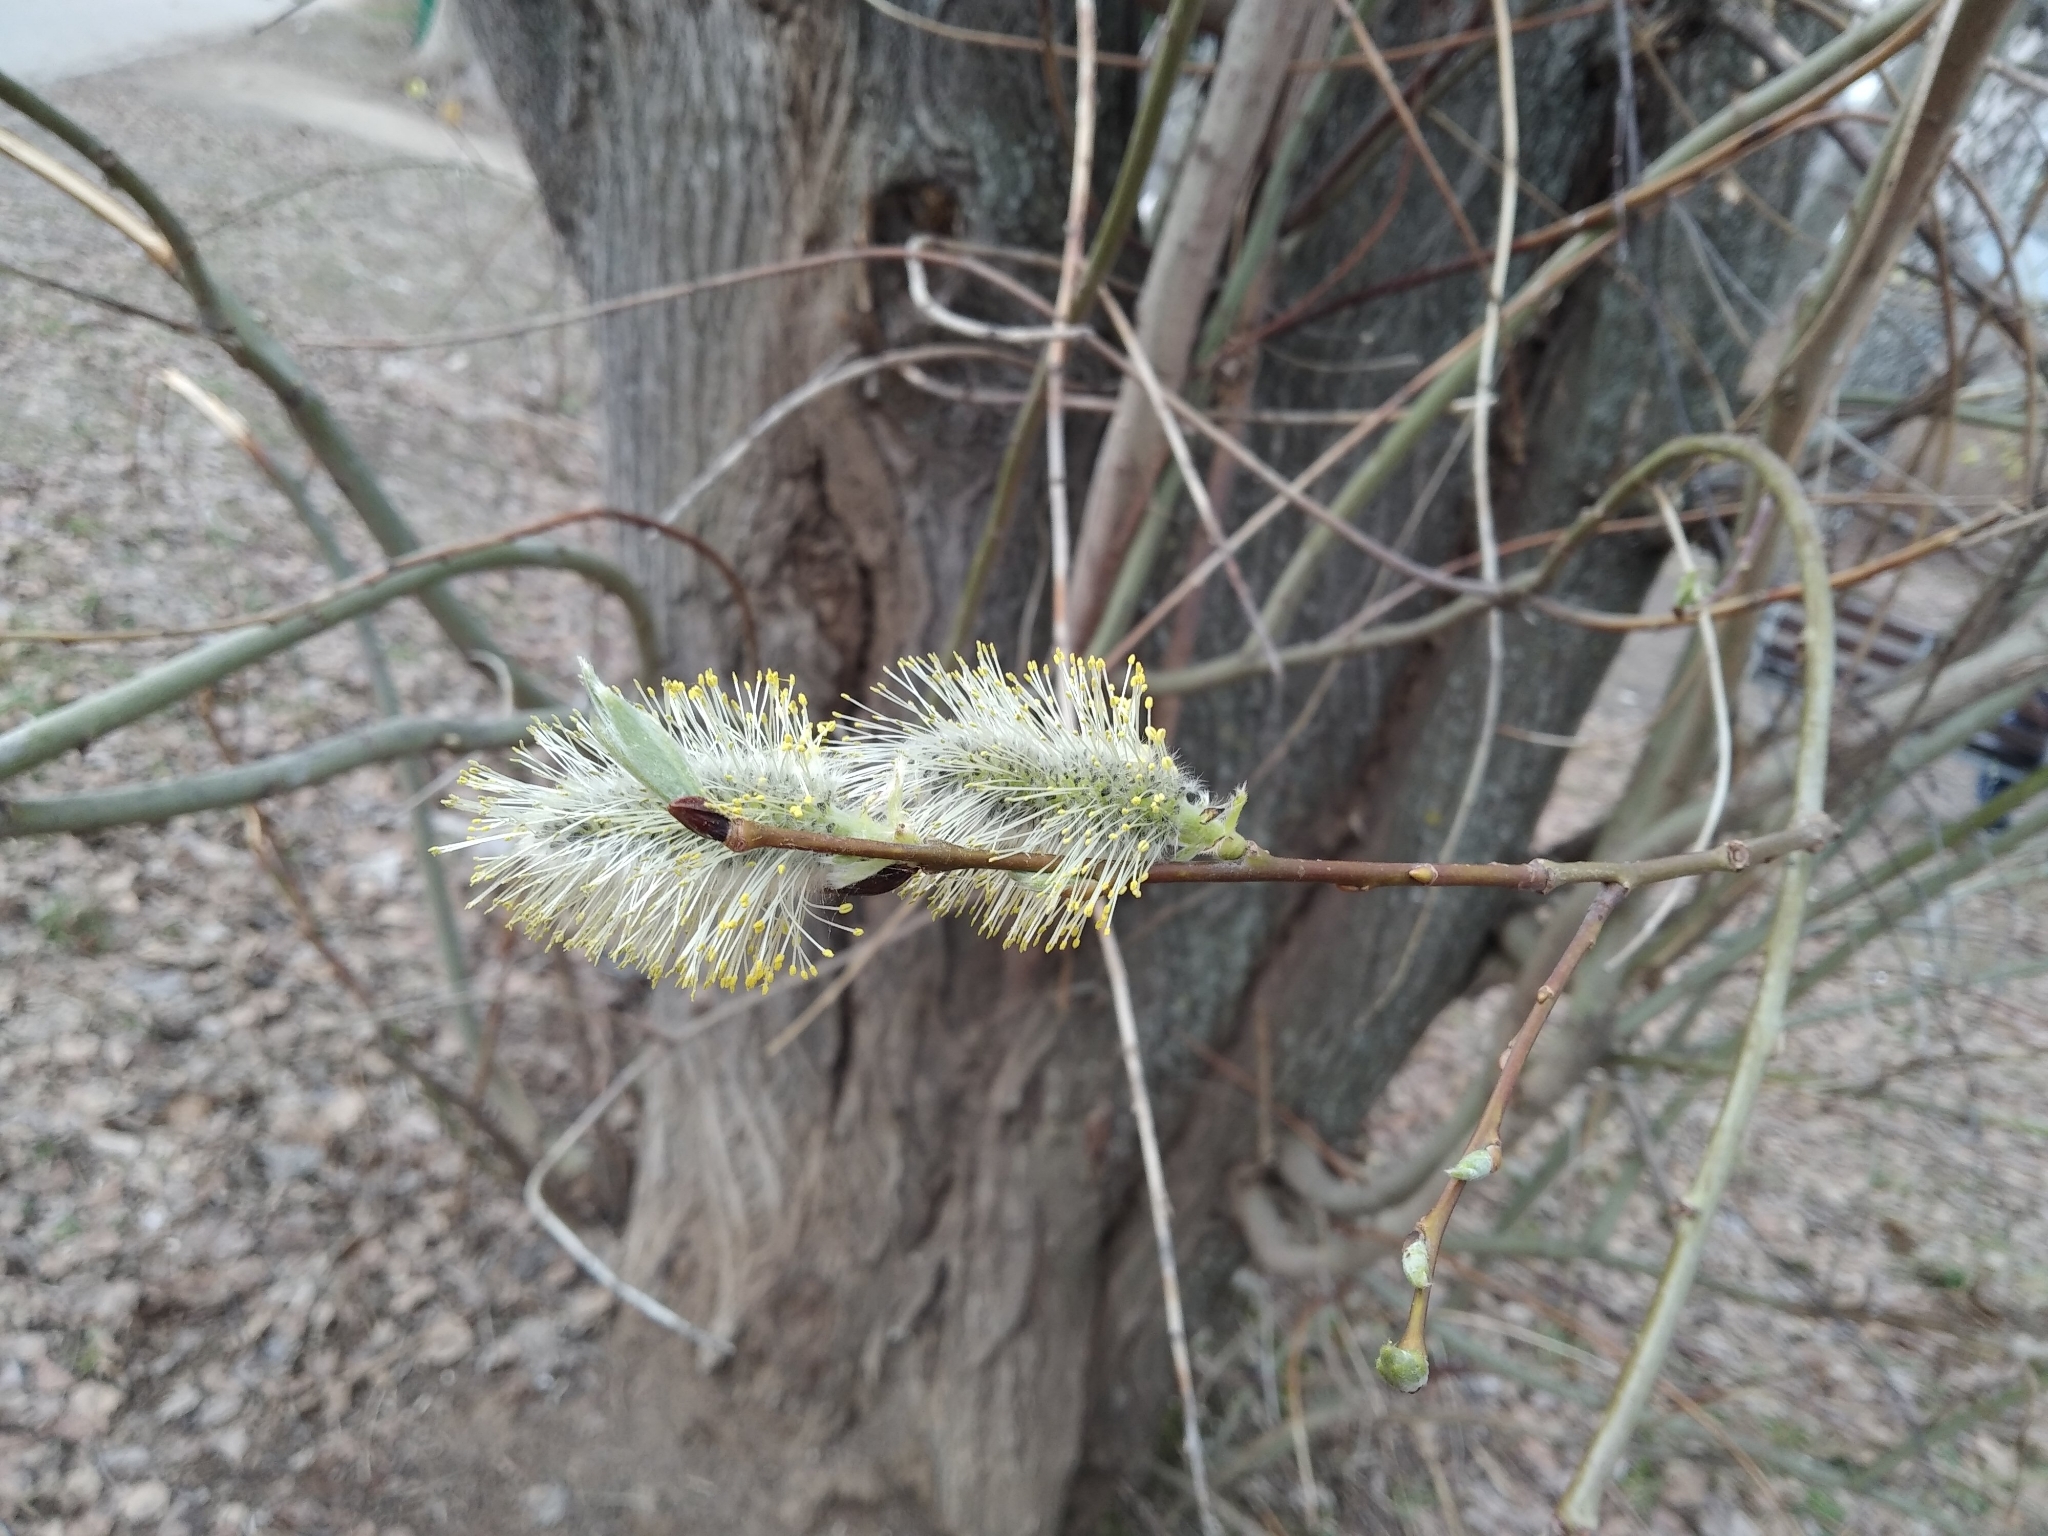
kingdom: Plantae
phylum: Tracheophyta
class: Magnoliopsida
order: Malpighiales
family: Salicaceae
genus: Salix
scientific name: Salix caprea
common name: Goat willow
